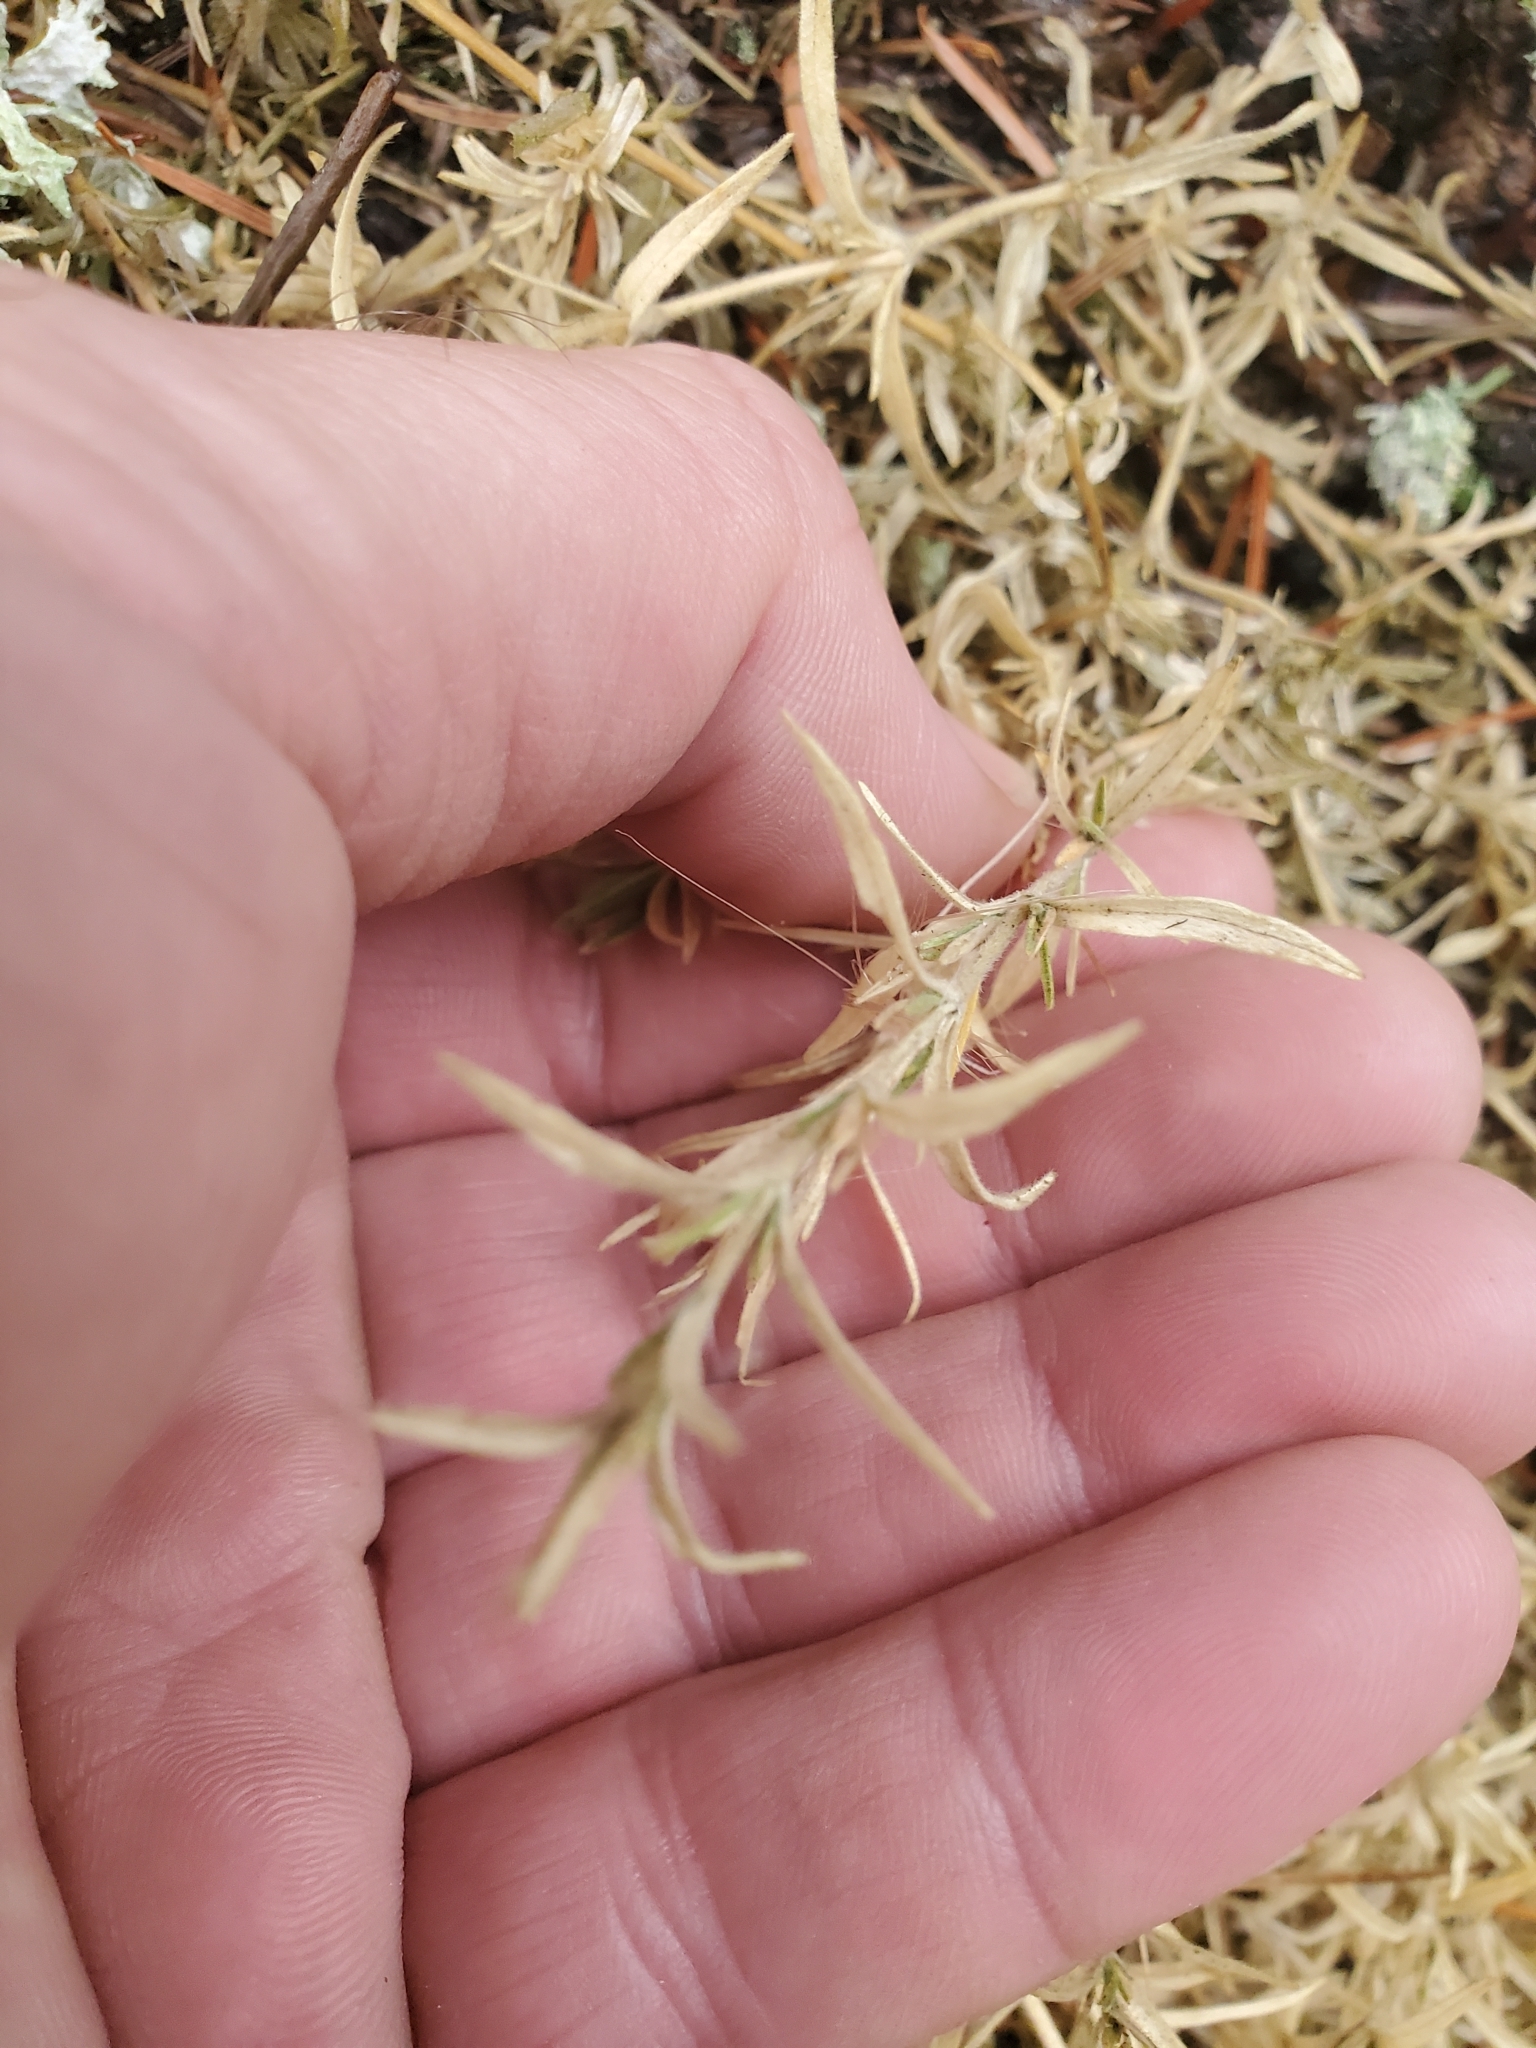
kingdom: Plantae
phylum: Tracheophyta
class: Magnoliopsida
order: Caryophyllales
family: Caryophyllaceae
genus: Cerastium
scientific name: Cerastium arvense
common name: Field mouse-ear
